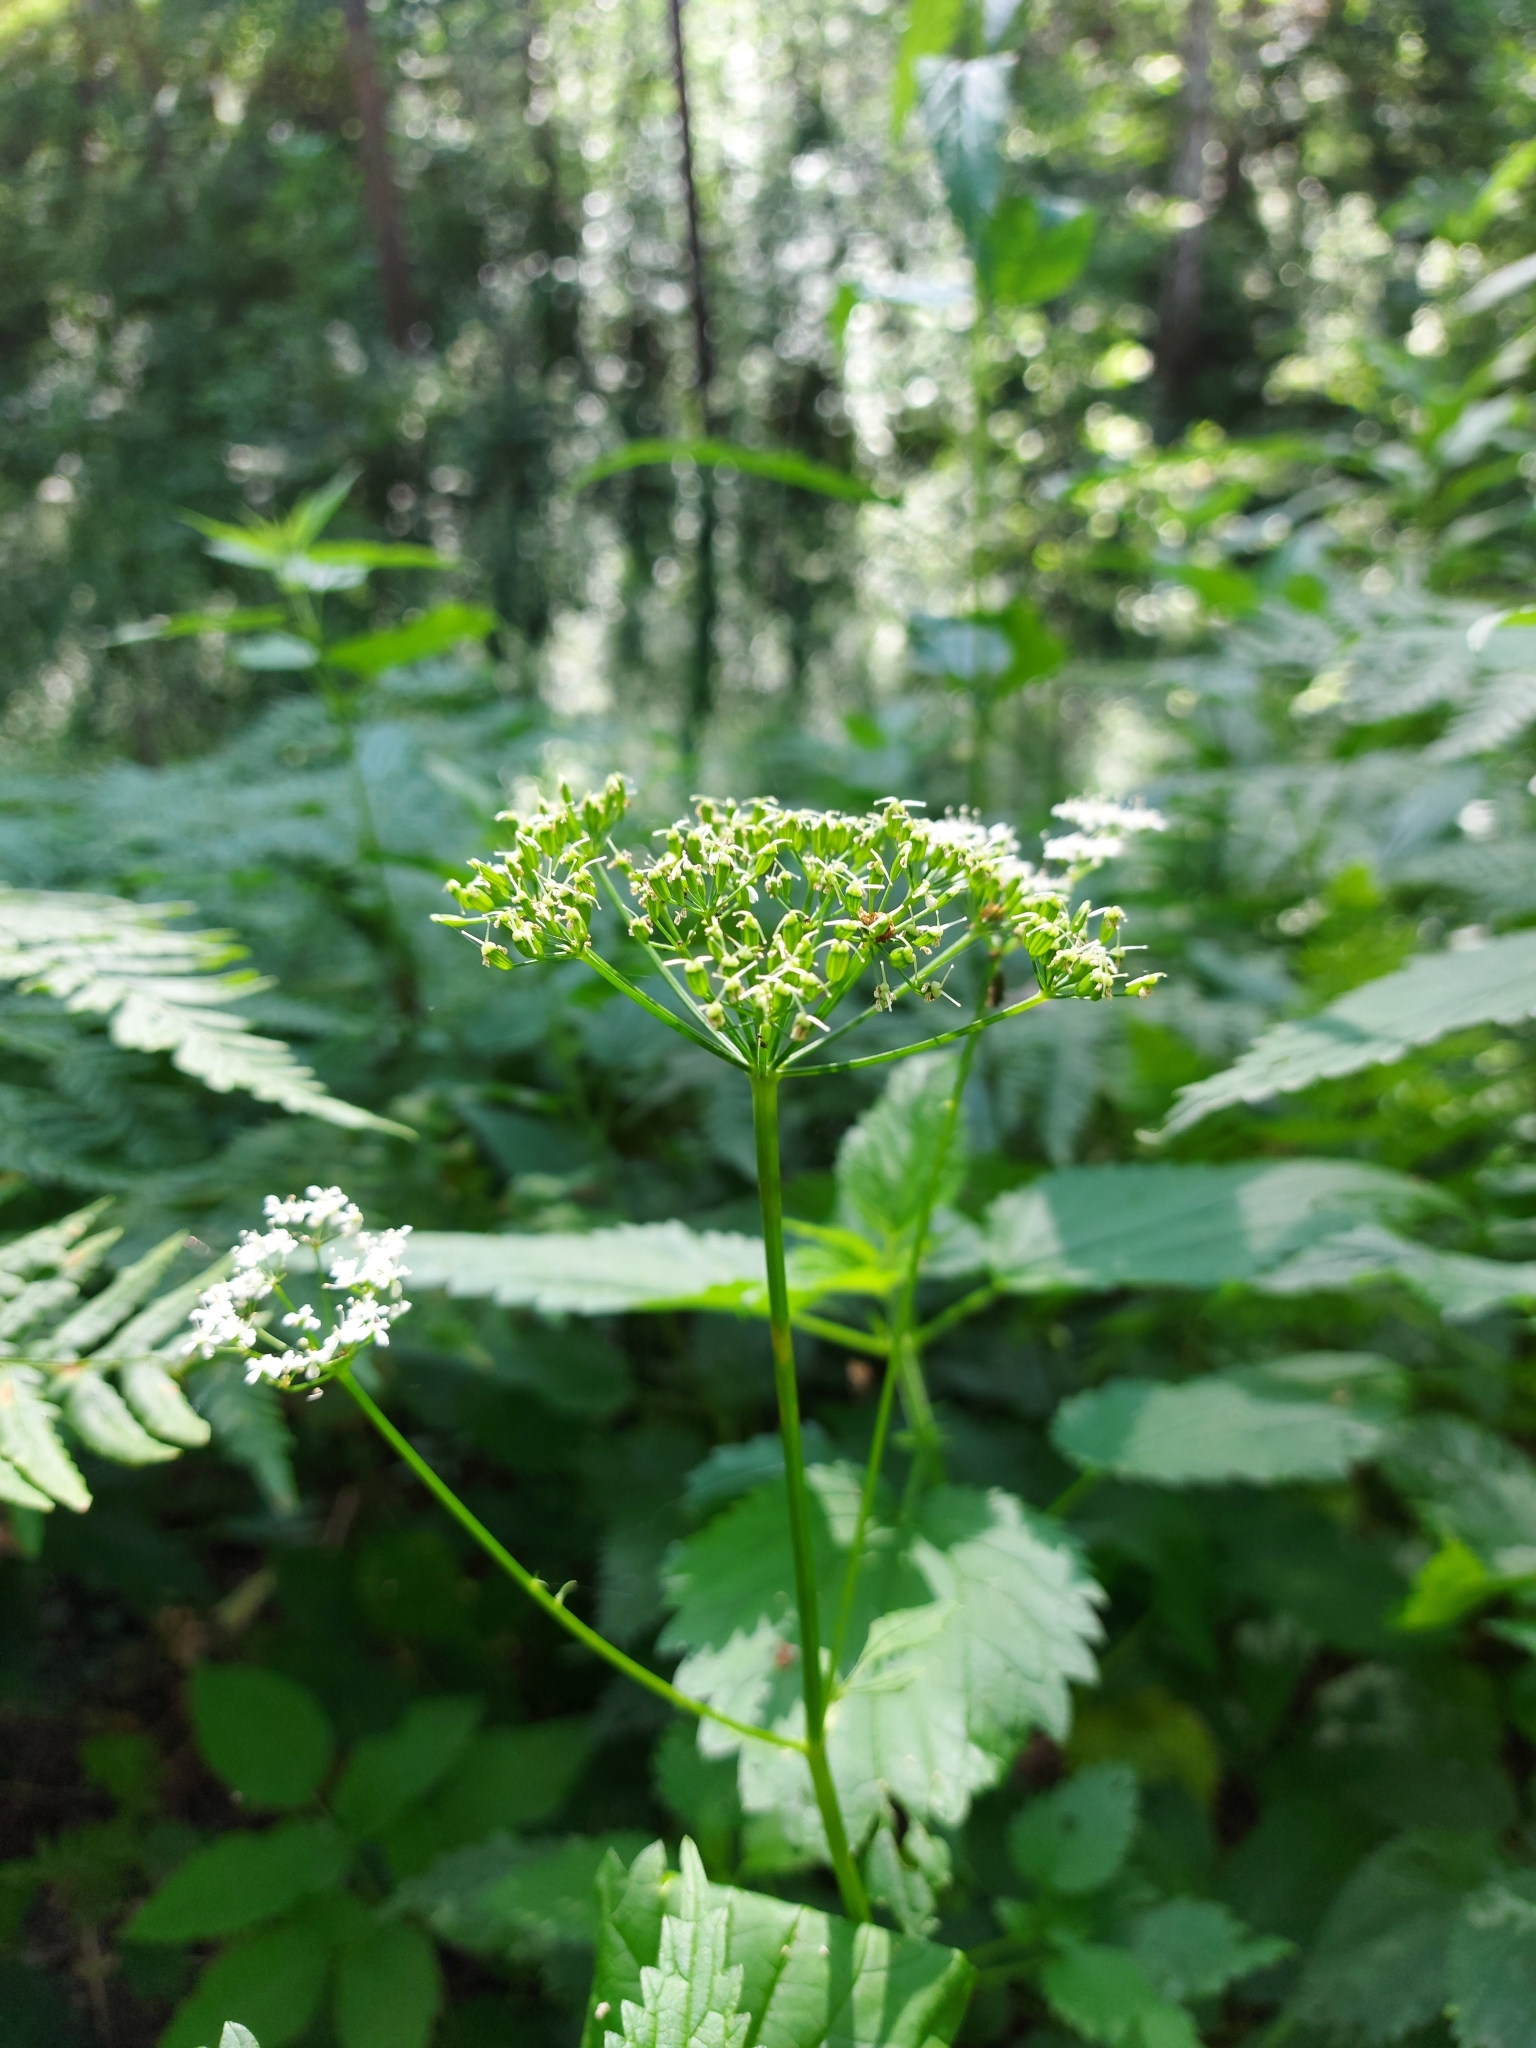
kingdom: Plantae
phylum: Tracheophyta
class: Magnoliopsida
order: Apiales
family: Apiaceae
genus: Aegopodium
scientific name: Aegopodium podagraria
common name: Ground-elder
